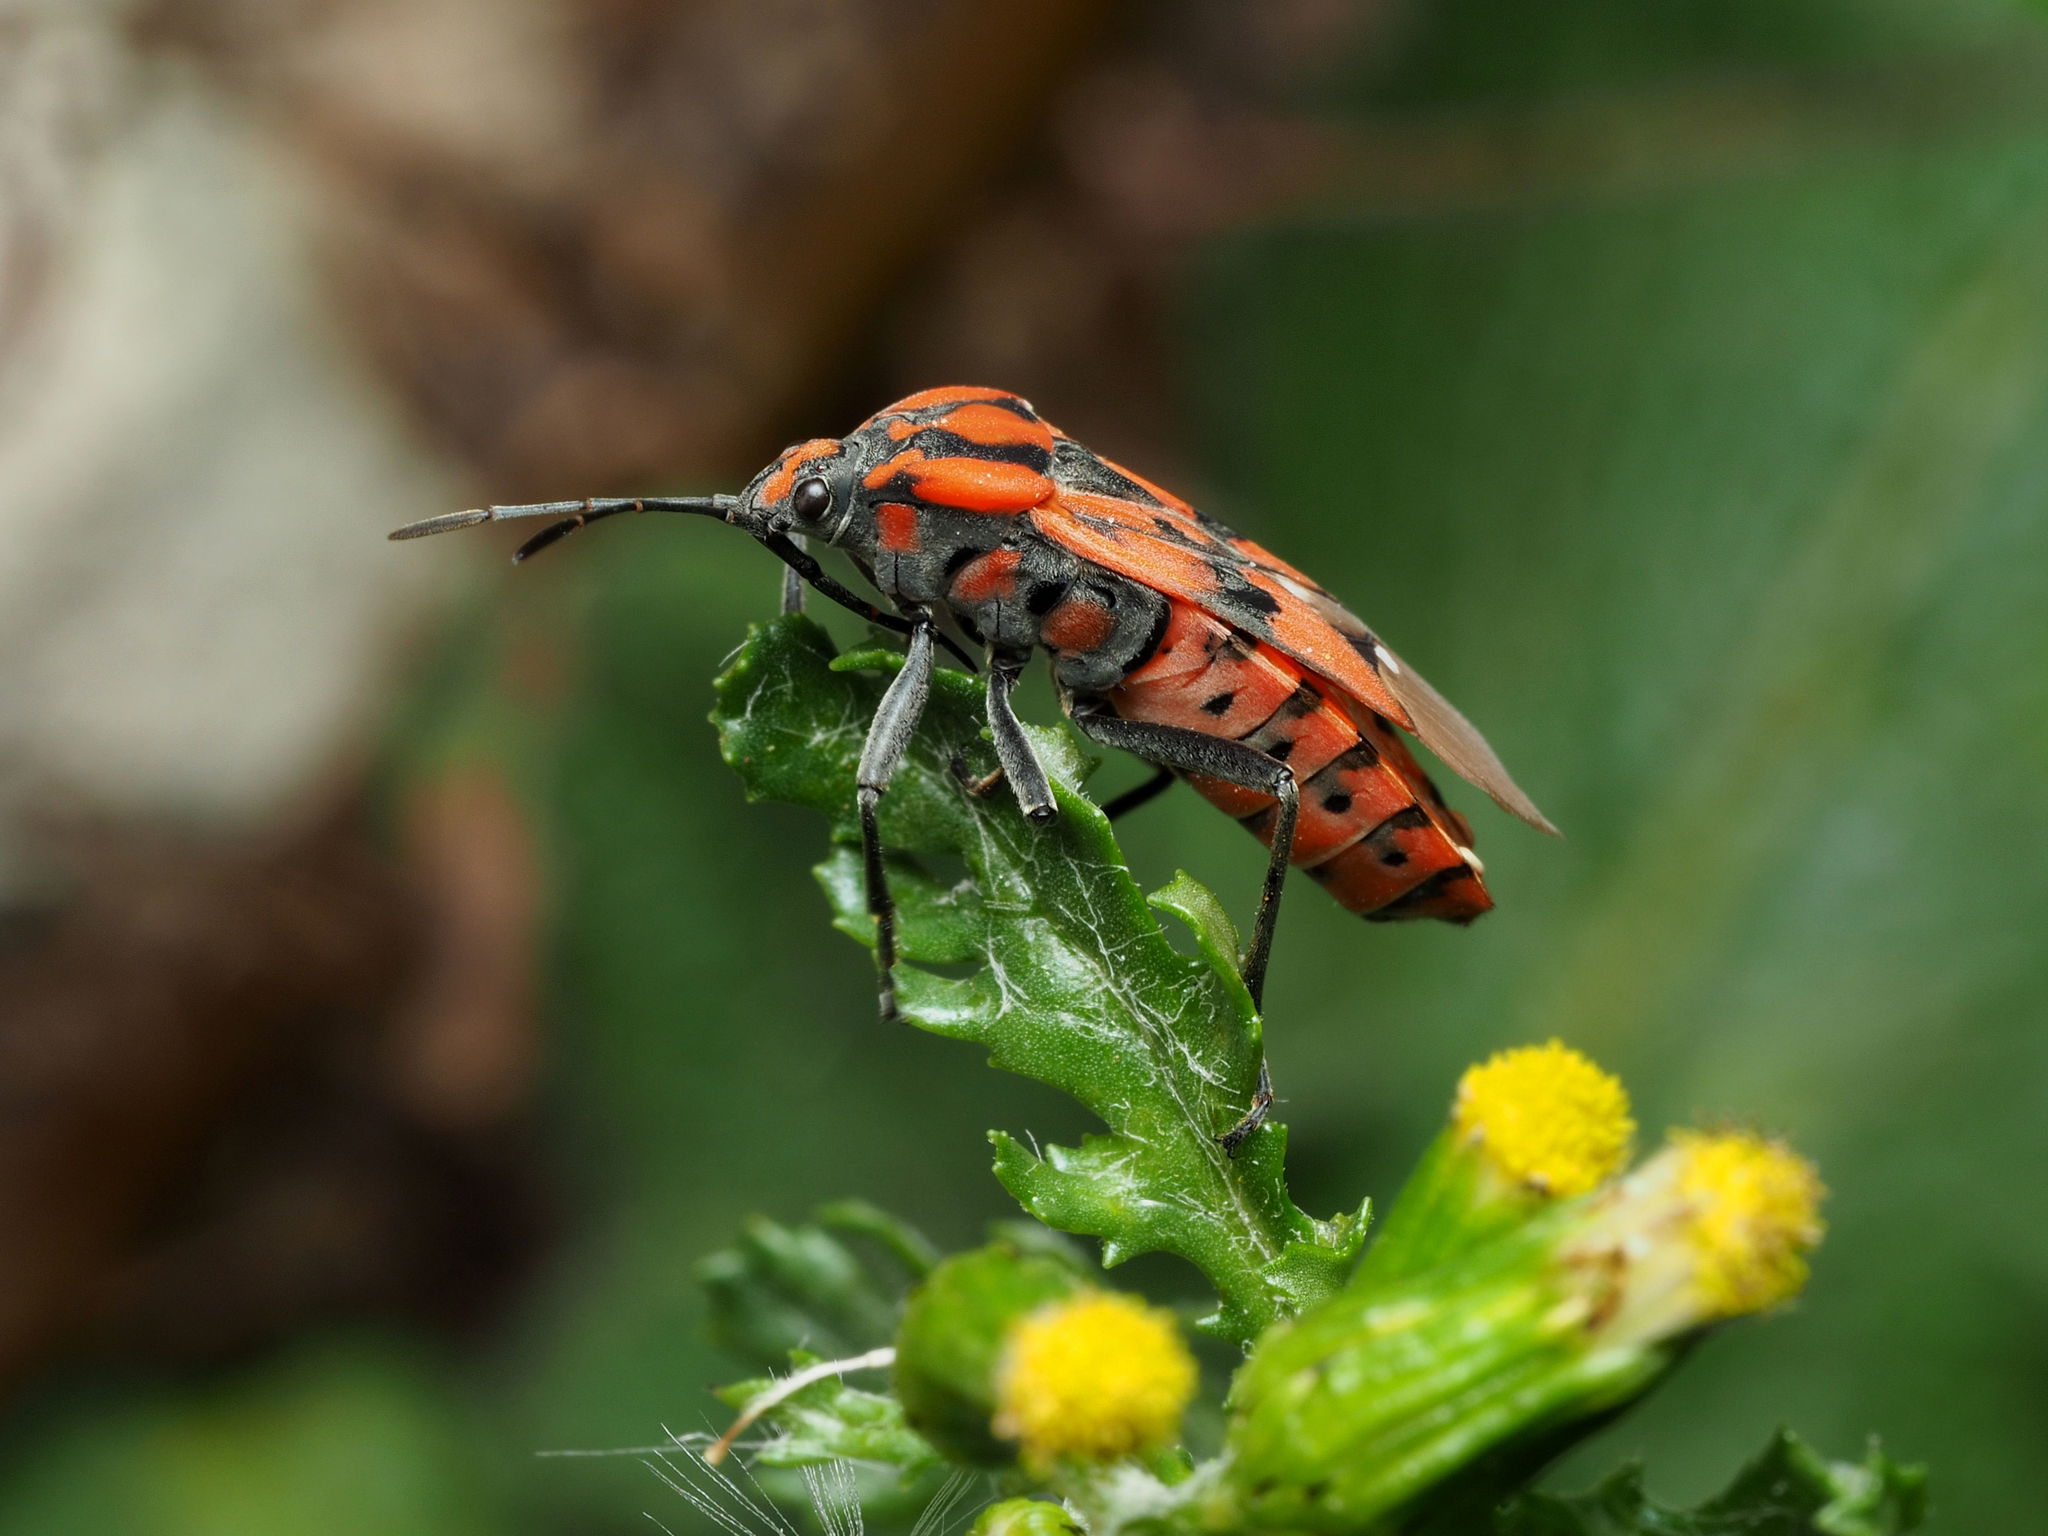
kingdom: Animalia
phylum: Arthropoda
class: Insecta
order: Hemiptera
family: Lygaeidae
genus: Spilostethus
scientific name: Spilostethus pandurus
